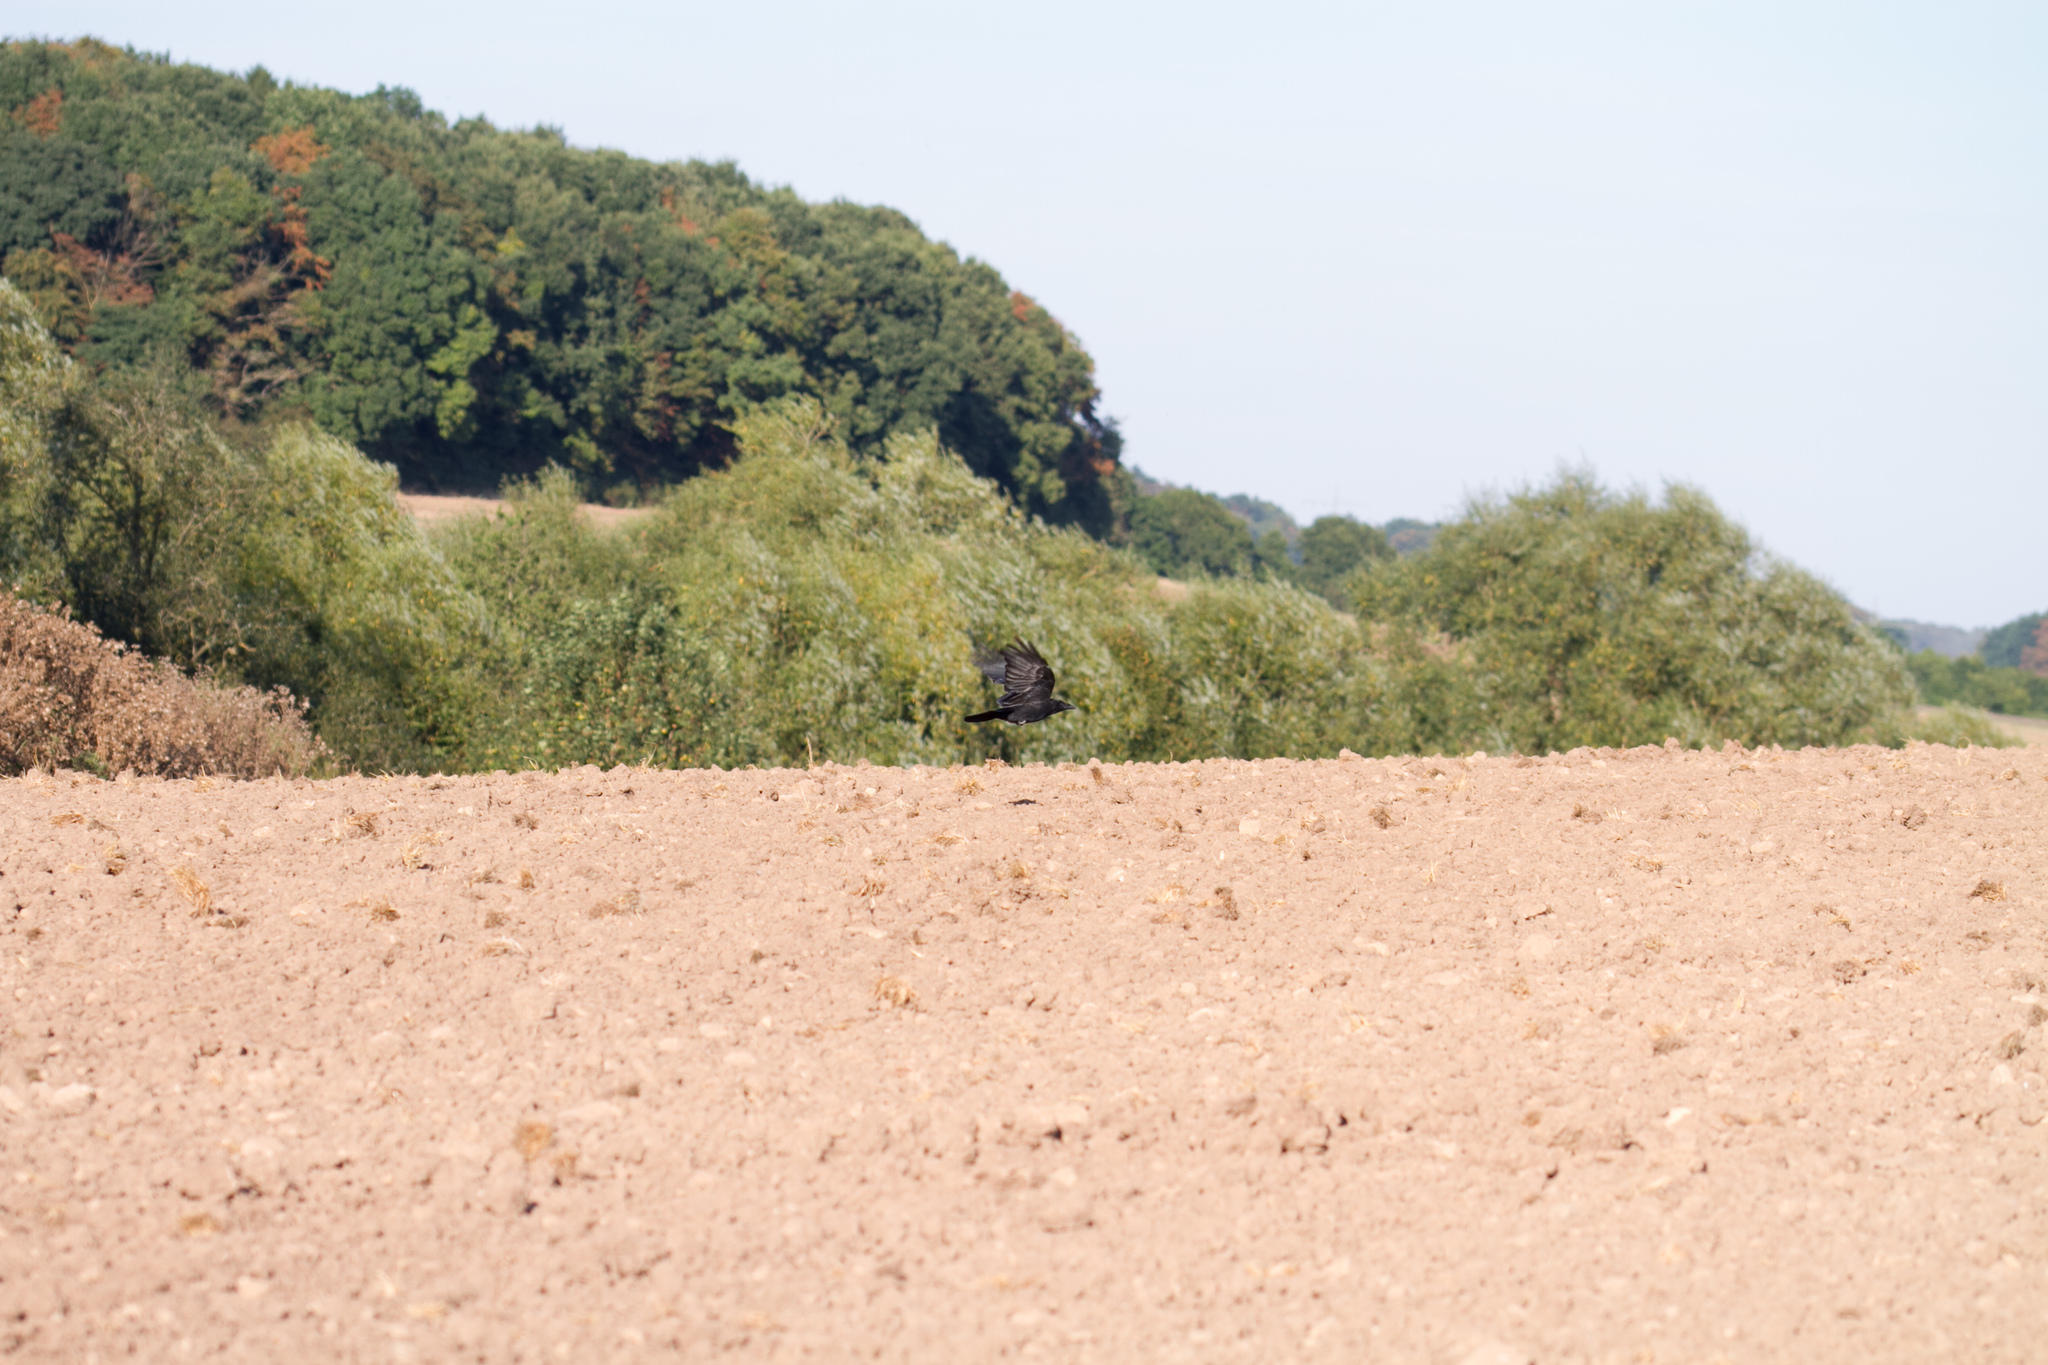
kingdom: Animalia
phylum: Chordata
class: Aves
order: Passeriformes
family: Corvidae
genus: Corvus
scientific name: Corvus corone
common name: Carrion crow
